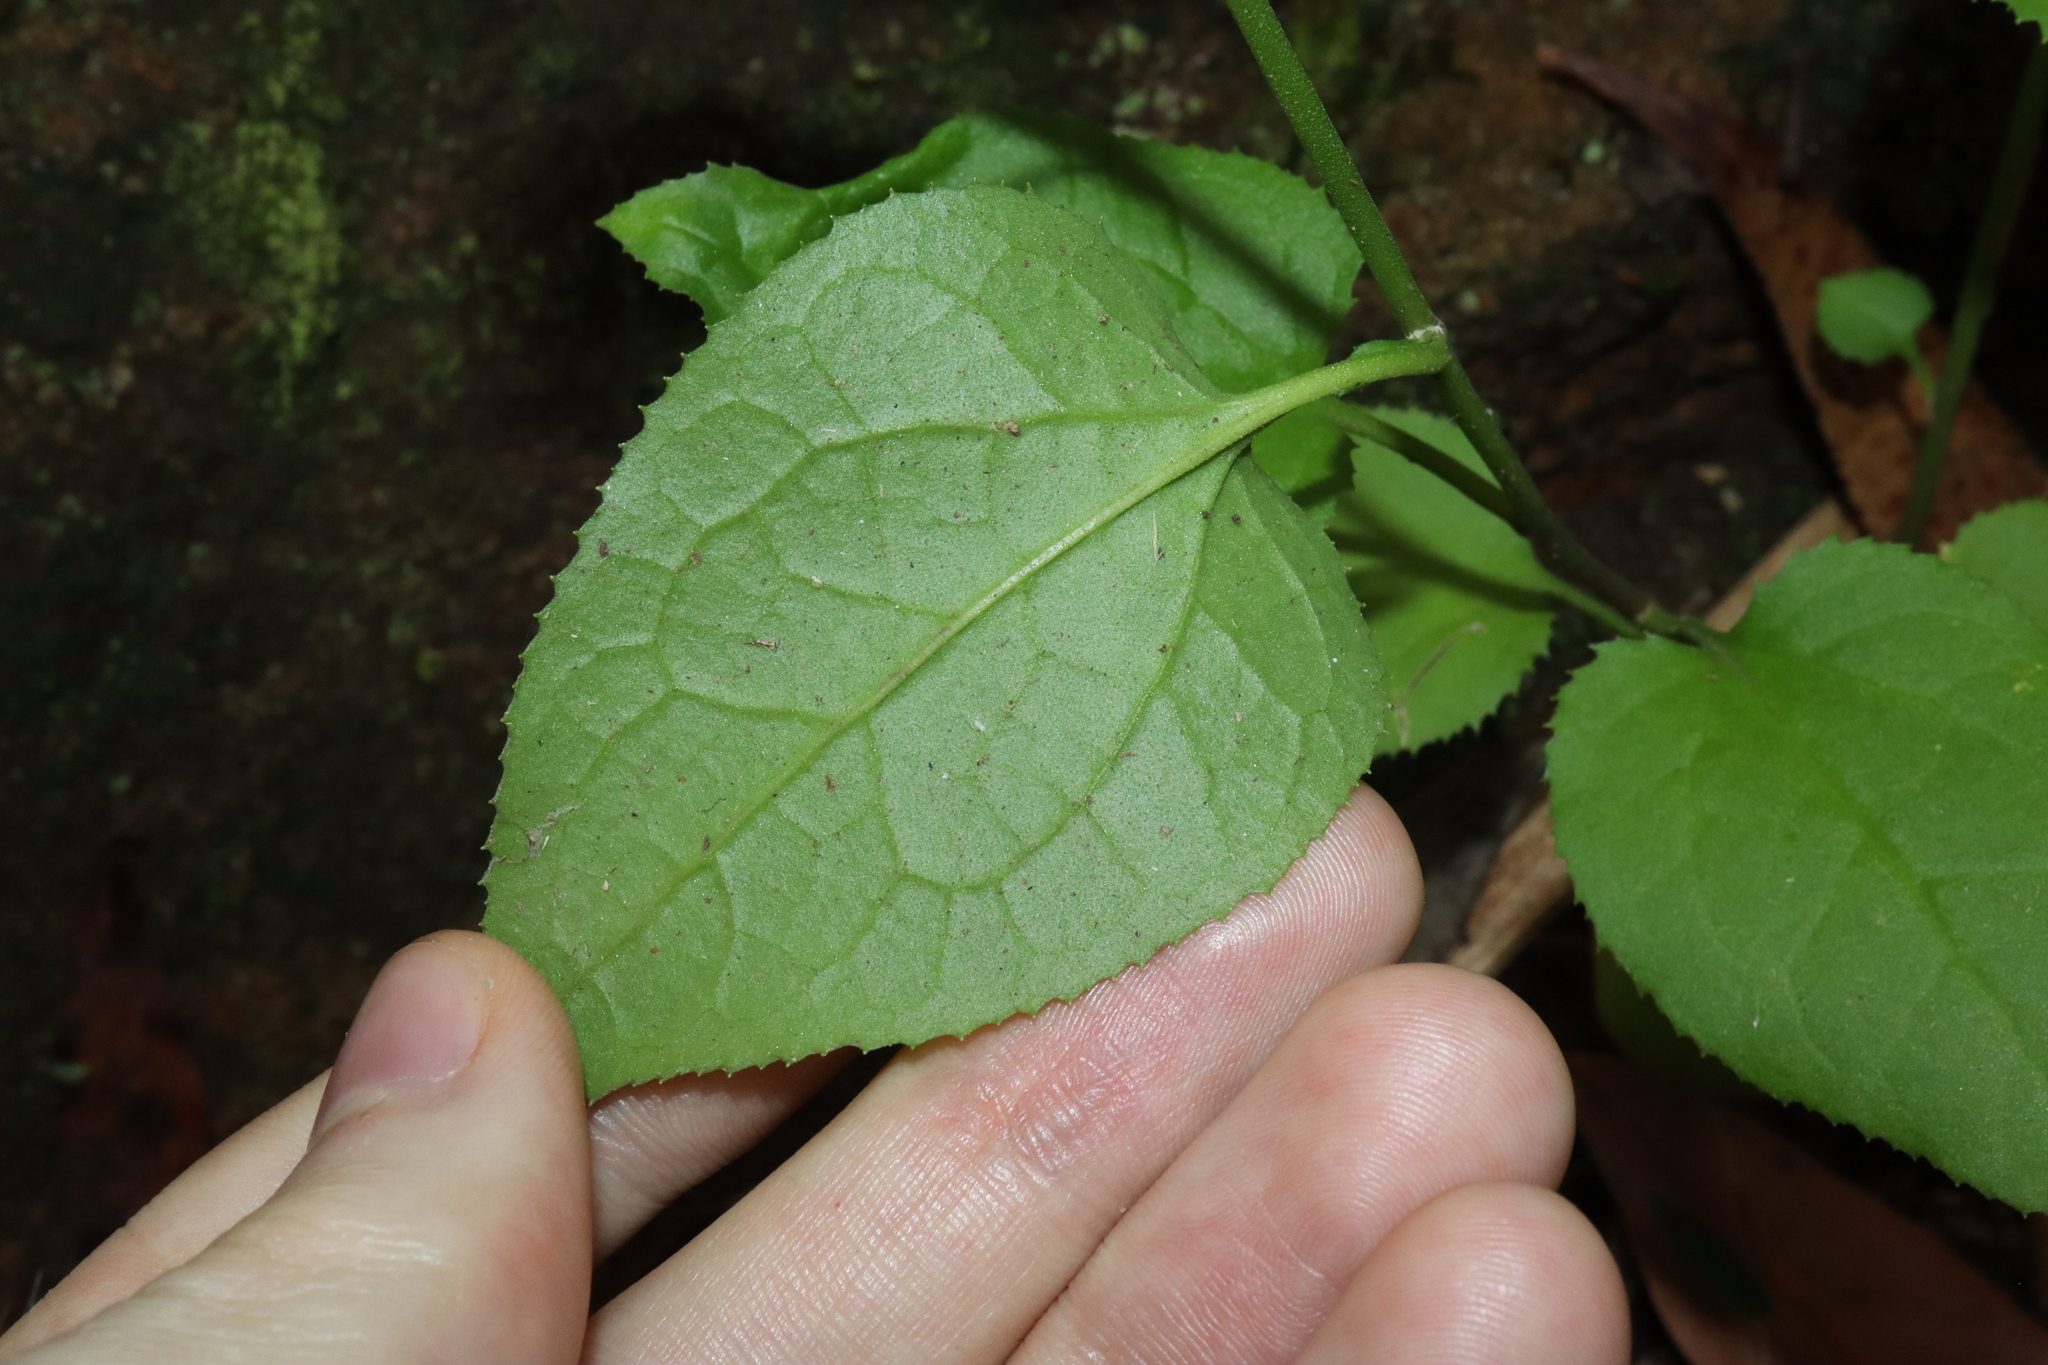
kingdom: Plantae
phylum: Tracheophyta
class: Magnoliopsida
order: Asterales
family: Goodeniaceae
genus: Goodenia
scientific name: Goodenia ovata
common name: Hop goodenia
